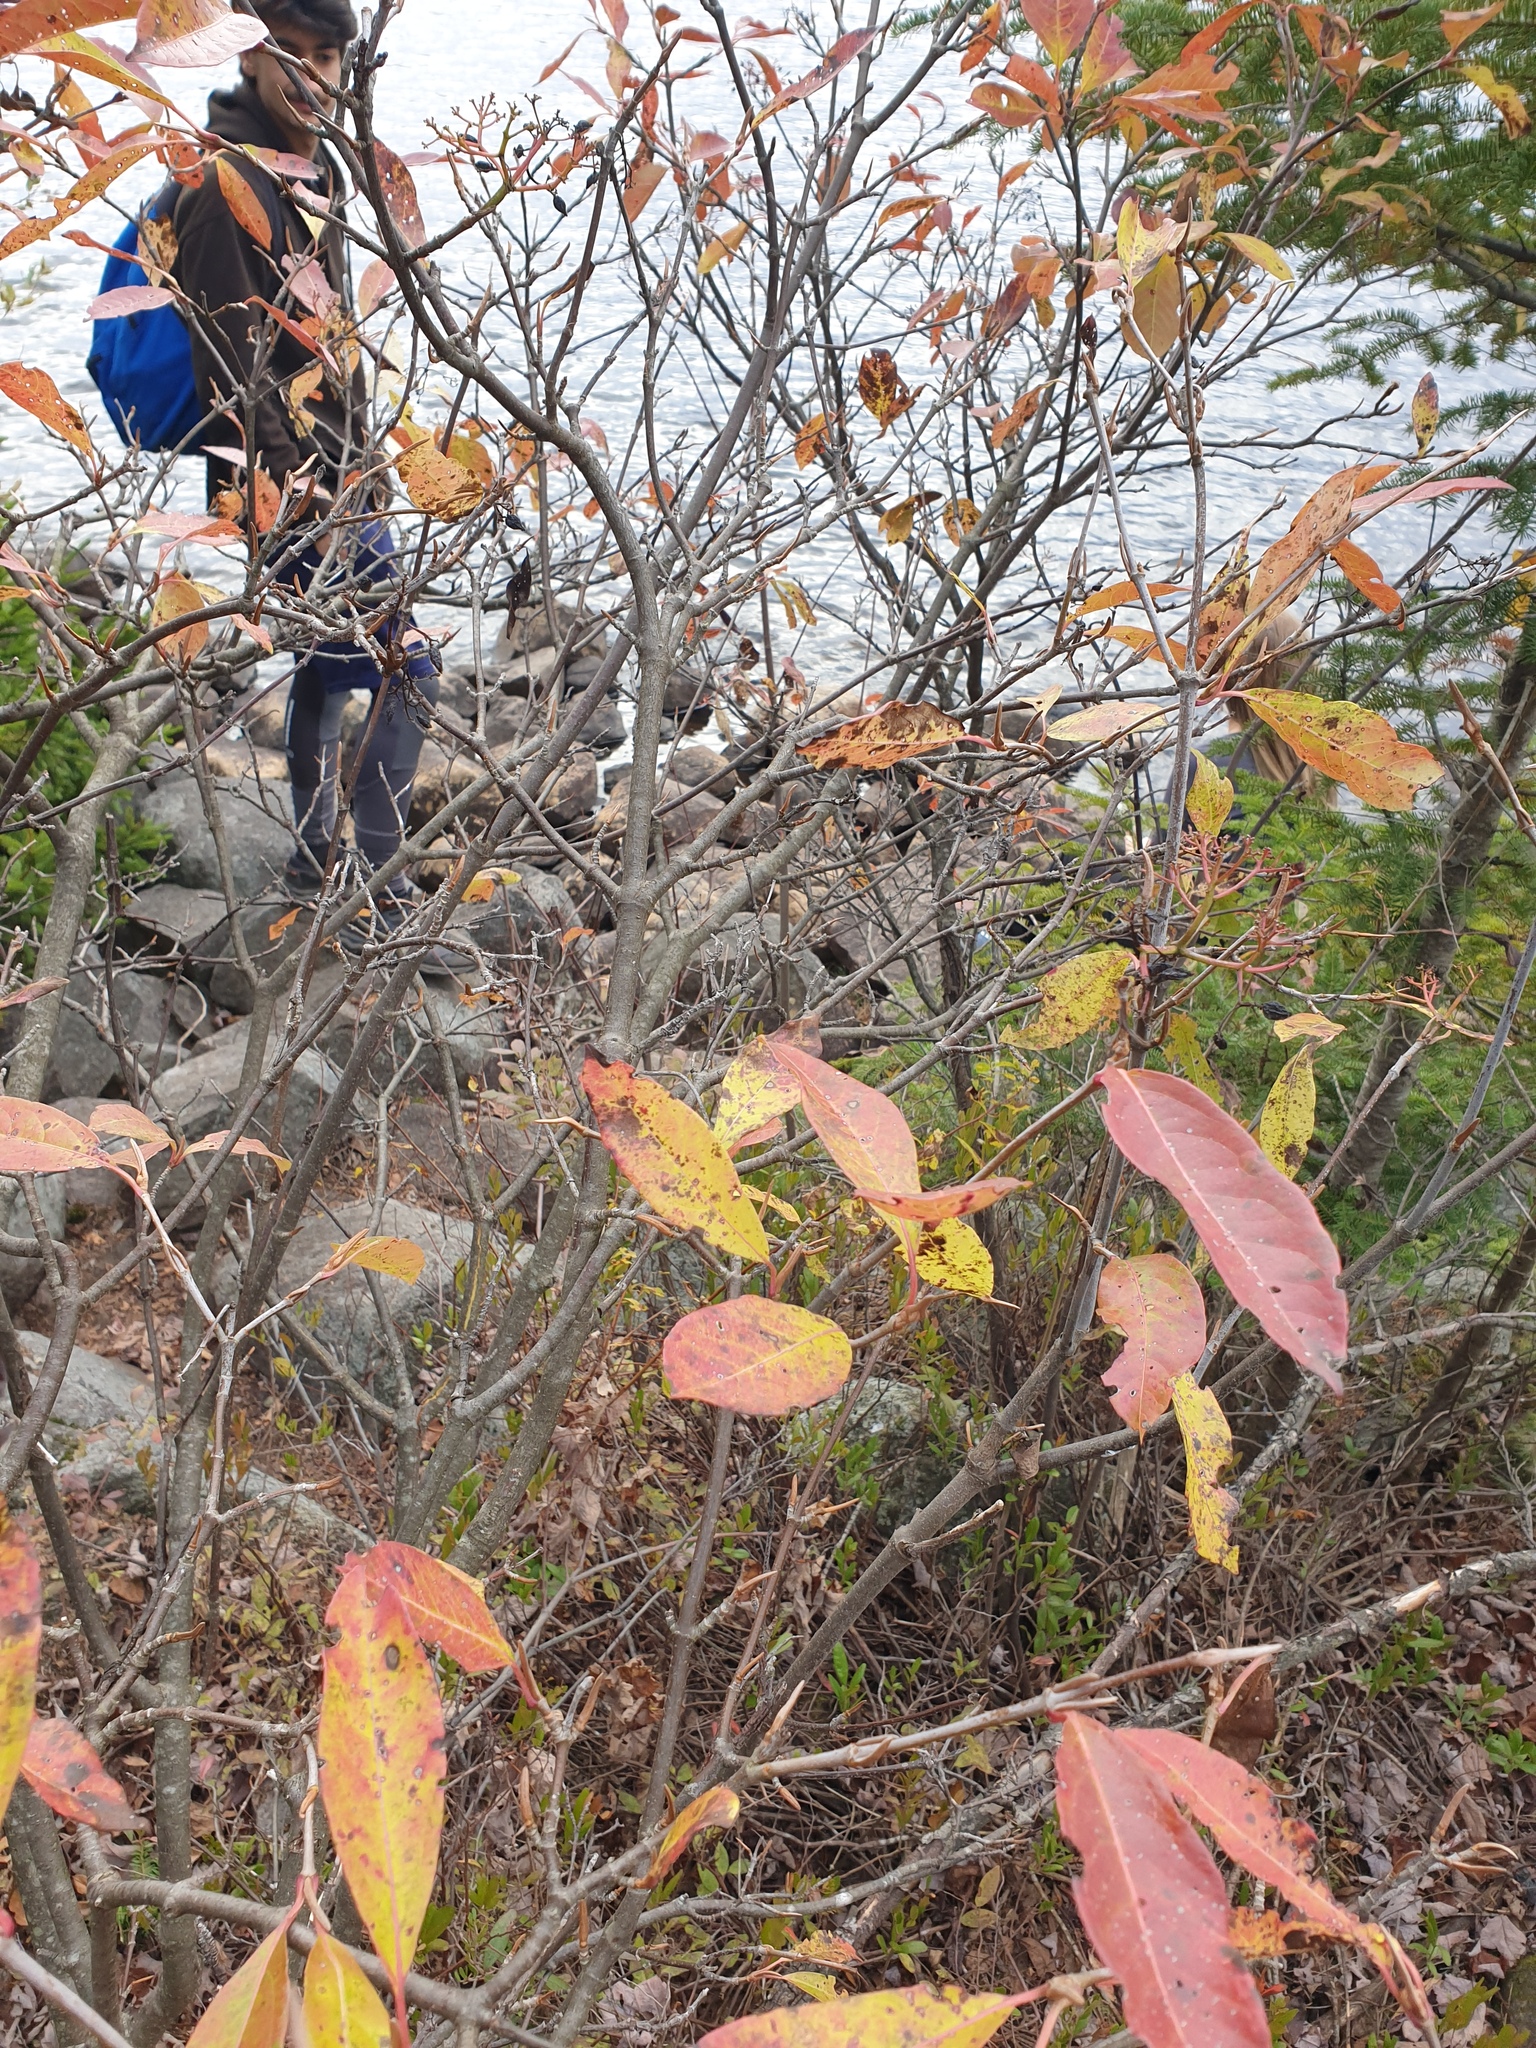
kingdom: Plantae
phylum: Tracheophyta
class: Magnoliopsida
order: Dipsacales
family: Viburnaceae
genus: Viburnum
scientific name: Viburnum cassinoides
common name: Swamp haw
